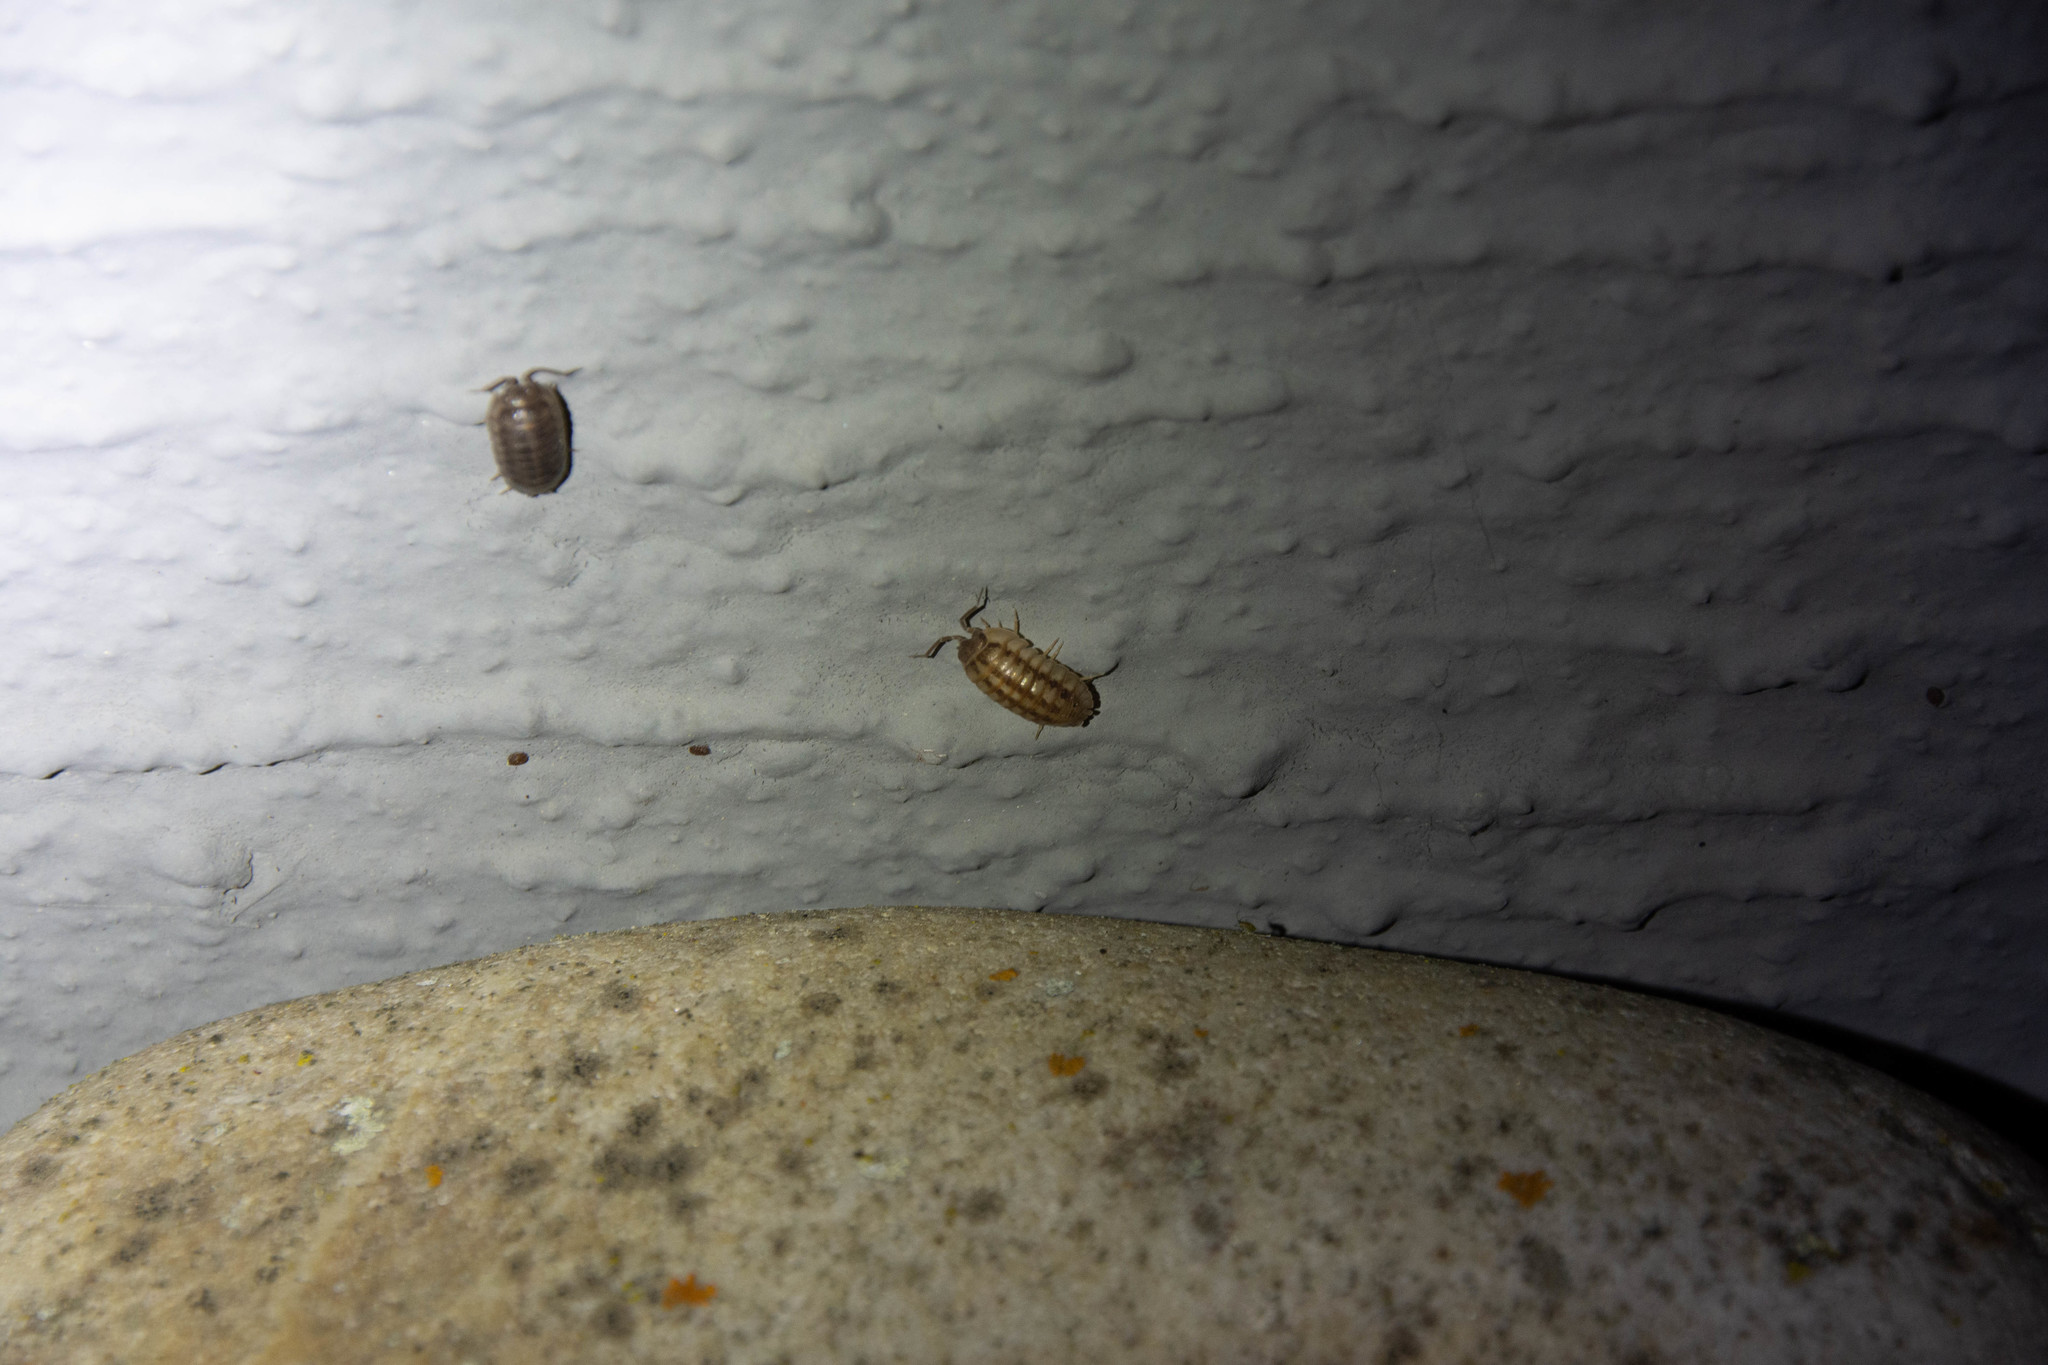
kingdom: Animalia
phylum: Arthropoda
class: Malacostraca
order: Isopoda
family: Armadillidiidae
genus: Armadillidium
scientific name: Armadillidium nasatum
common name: Isopod
